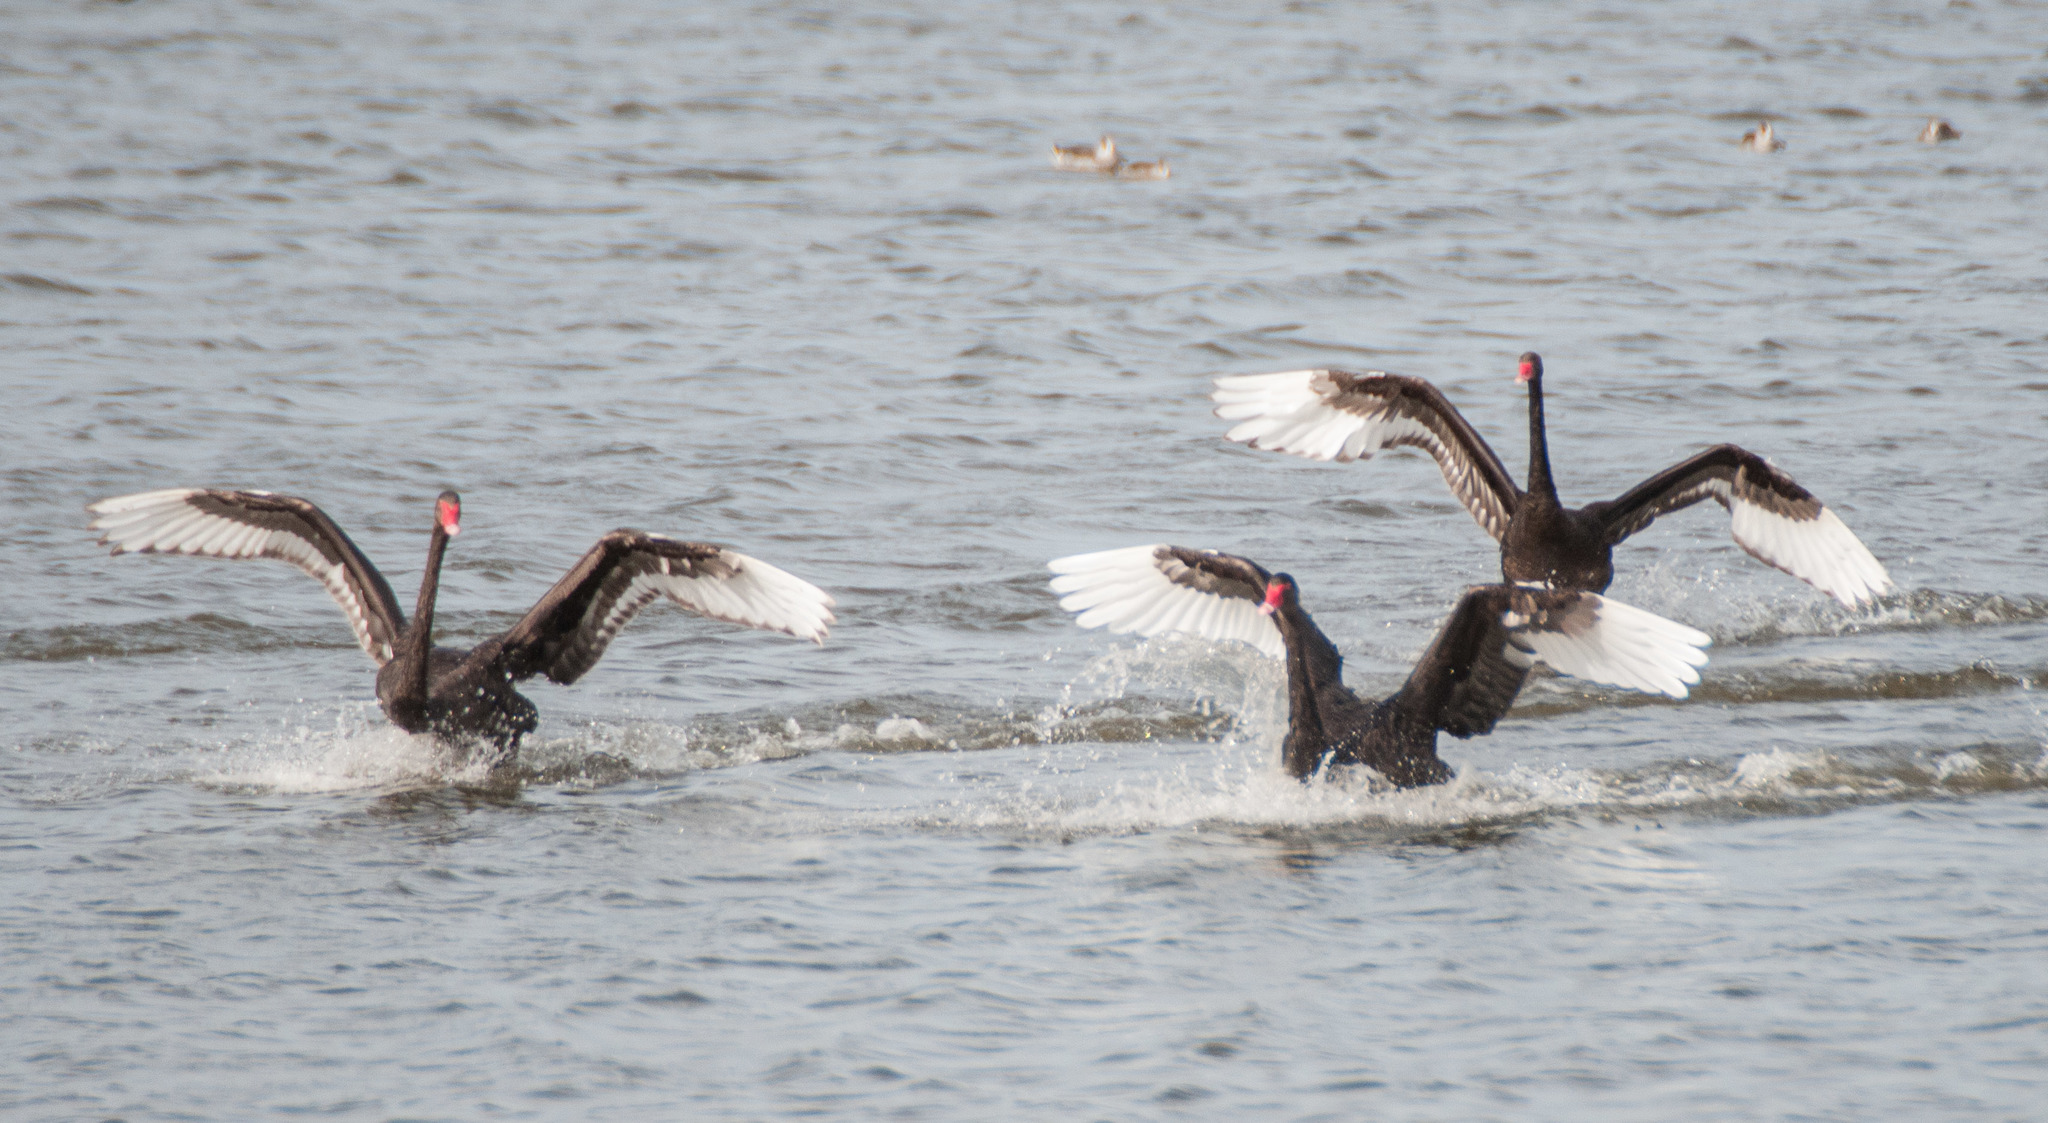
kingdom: Animalia
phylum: Chordata
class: Aves
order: Anseriformes
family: Anatidae
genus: Cygnus
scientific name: Cygnus atratus
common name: Black swan
